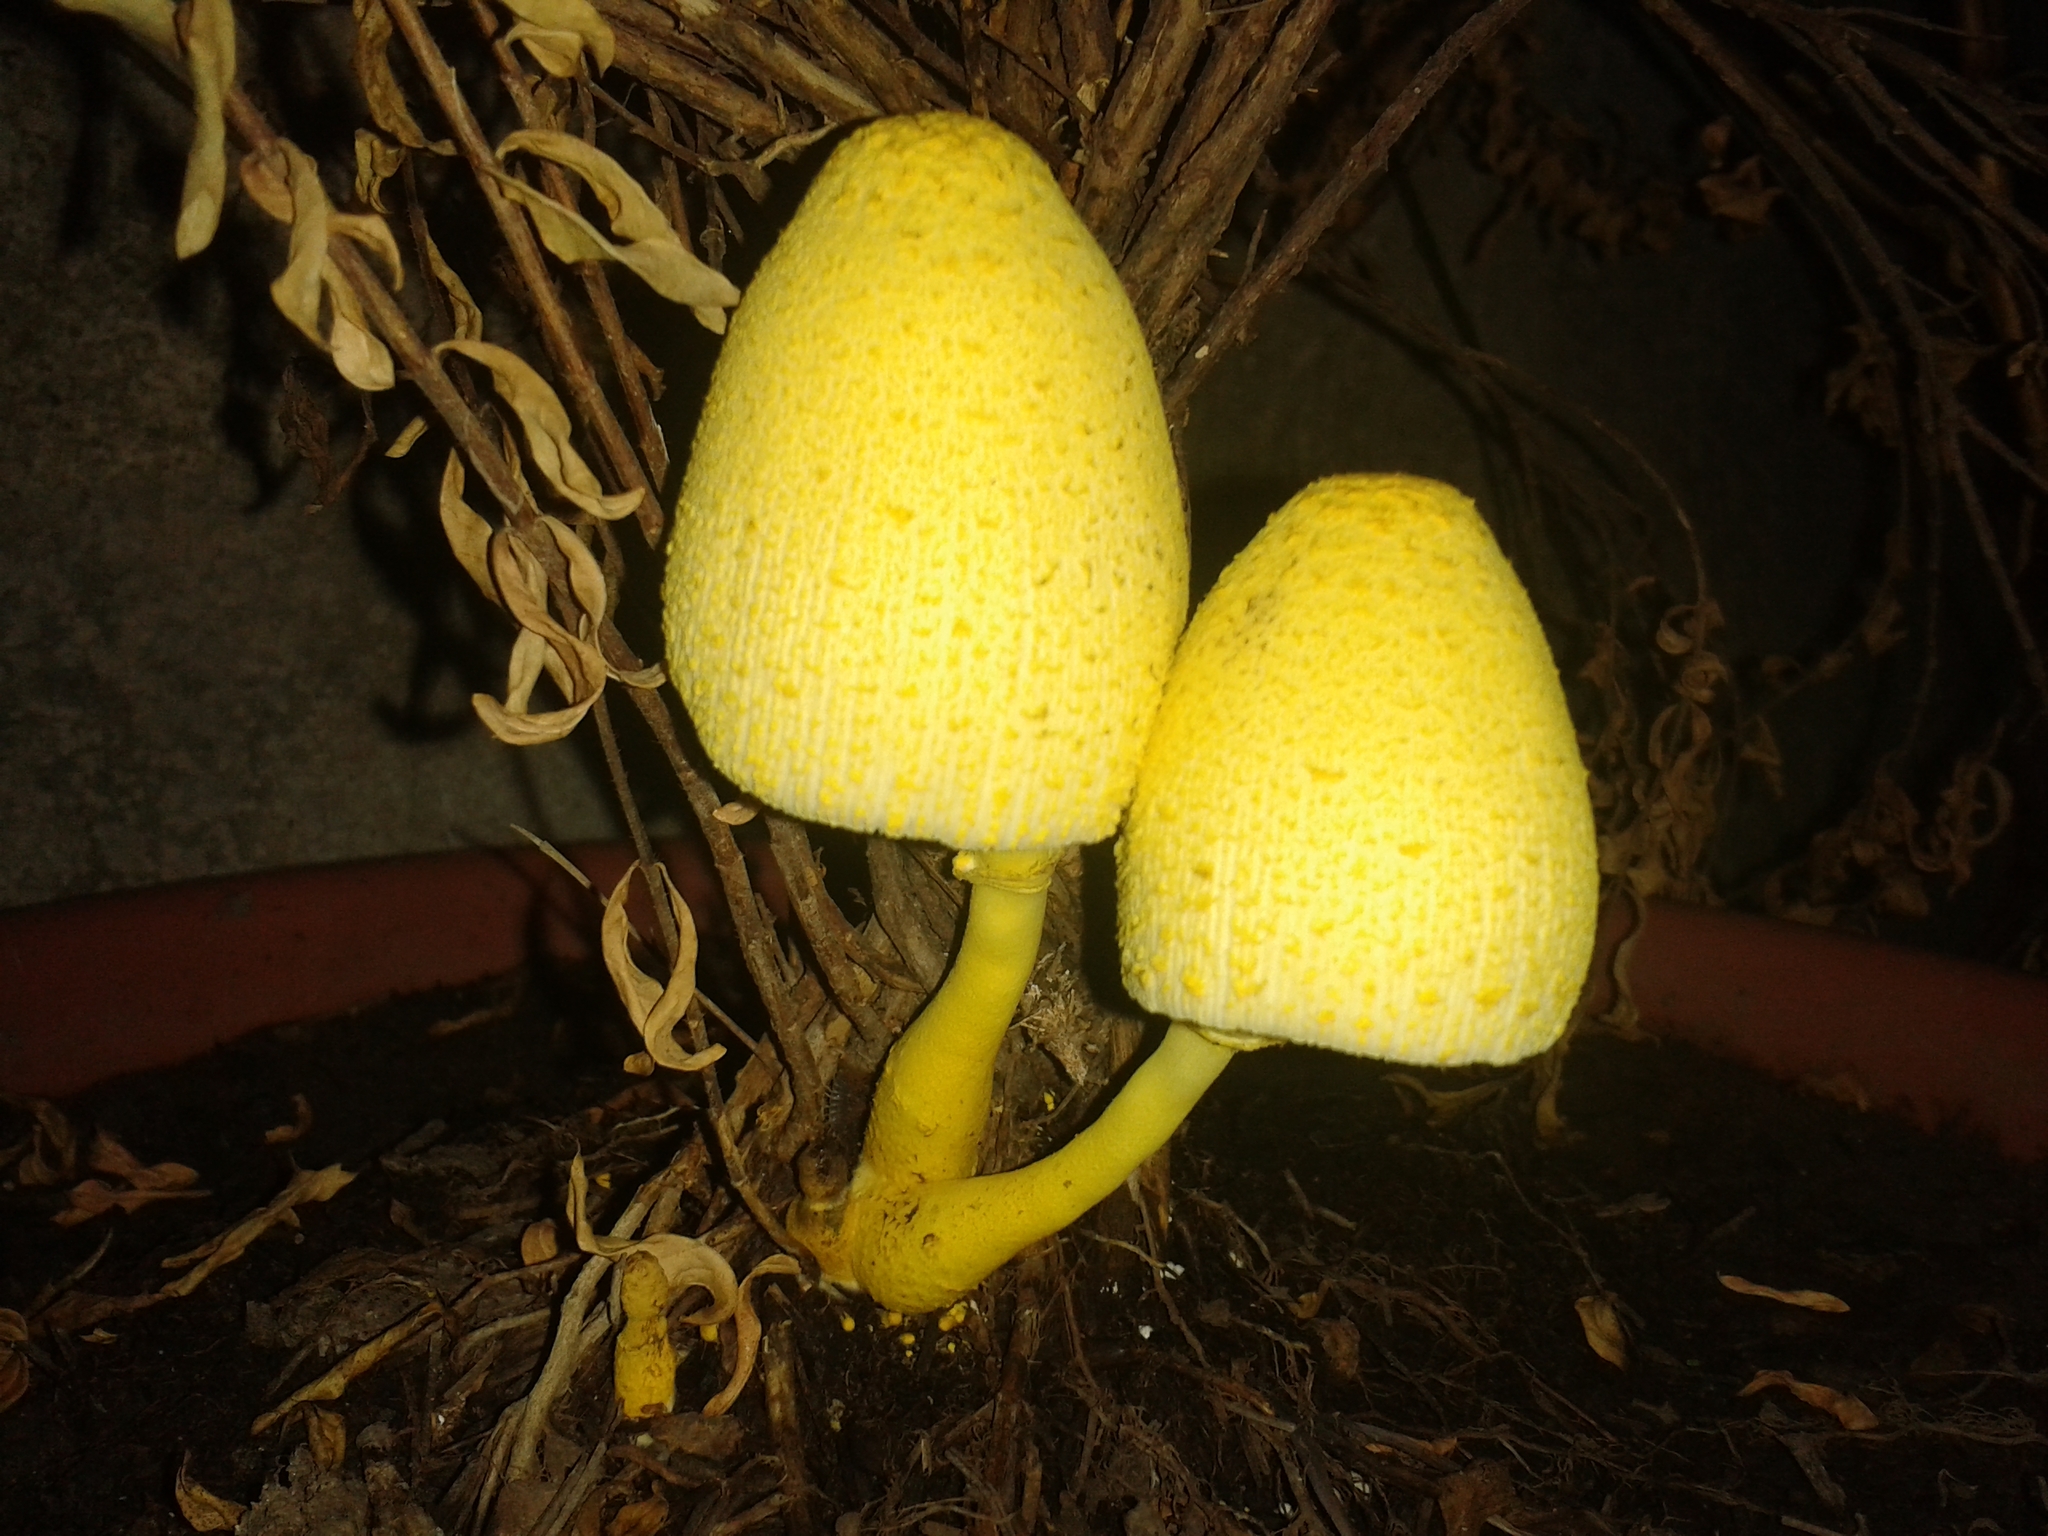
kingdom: Fungi
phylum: Basidiomycota
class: Agaricomycetes
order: Agaricales
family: Agaricaceae
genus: Leucocoprinus
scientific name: Leucocoprinus birnbaumii
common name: Plantpot dapperling
